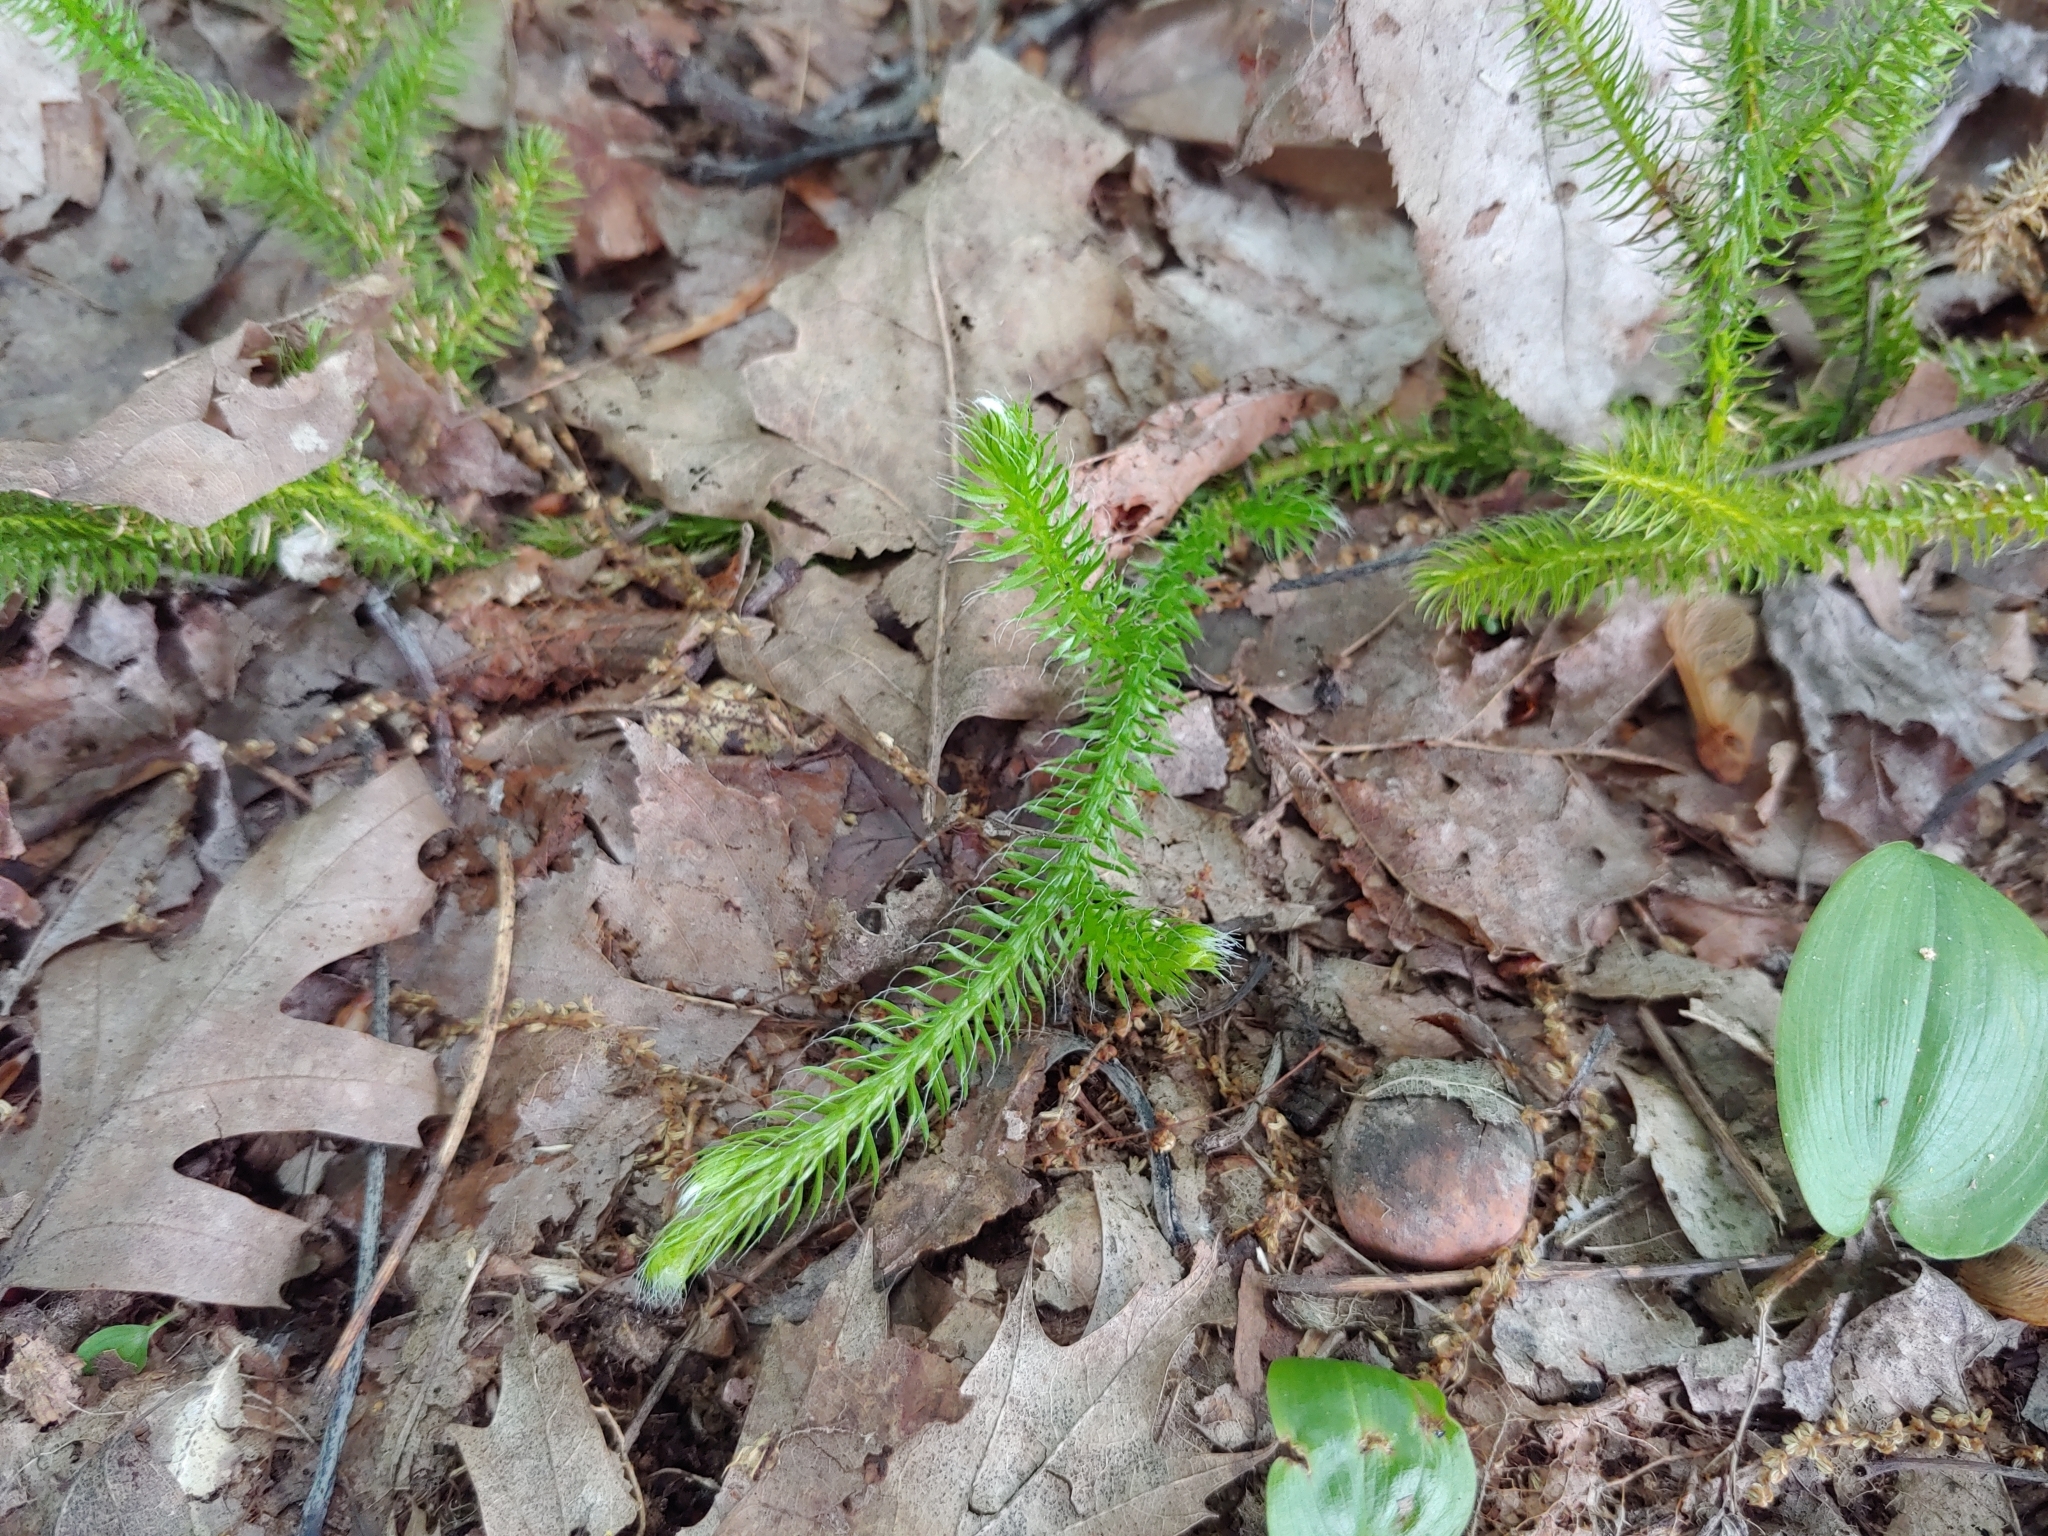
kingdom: Plantae
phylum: Tracheophyta
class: Lycopodiopsida
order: Lycopodiales
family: Lycopodiaceae
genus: Lycopodium
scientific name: Lycopodium clavatum
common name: Stag's-horn clubmoss
